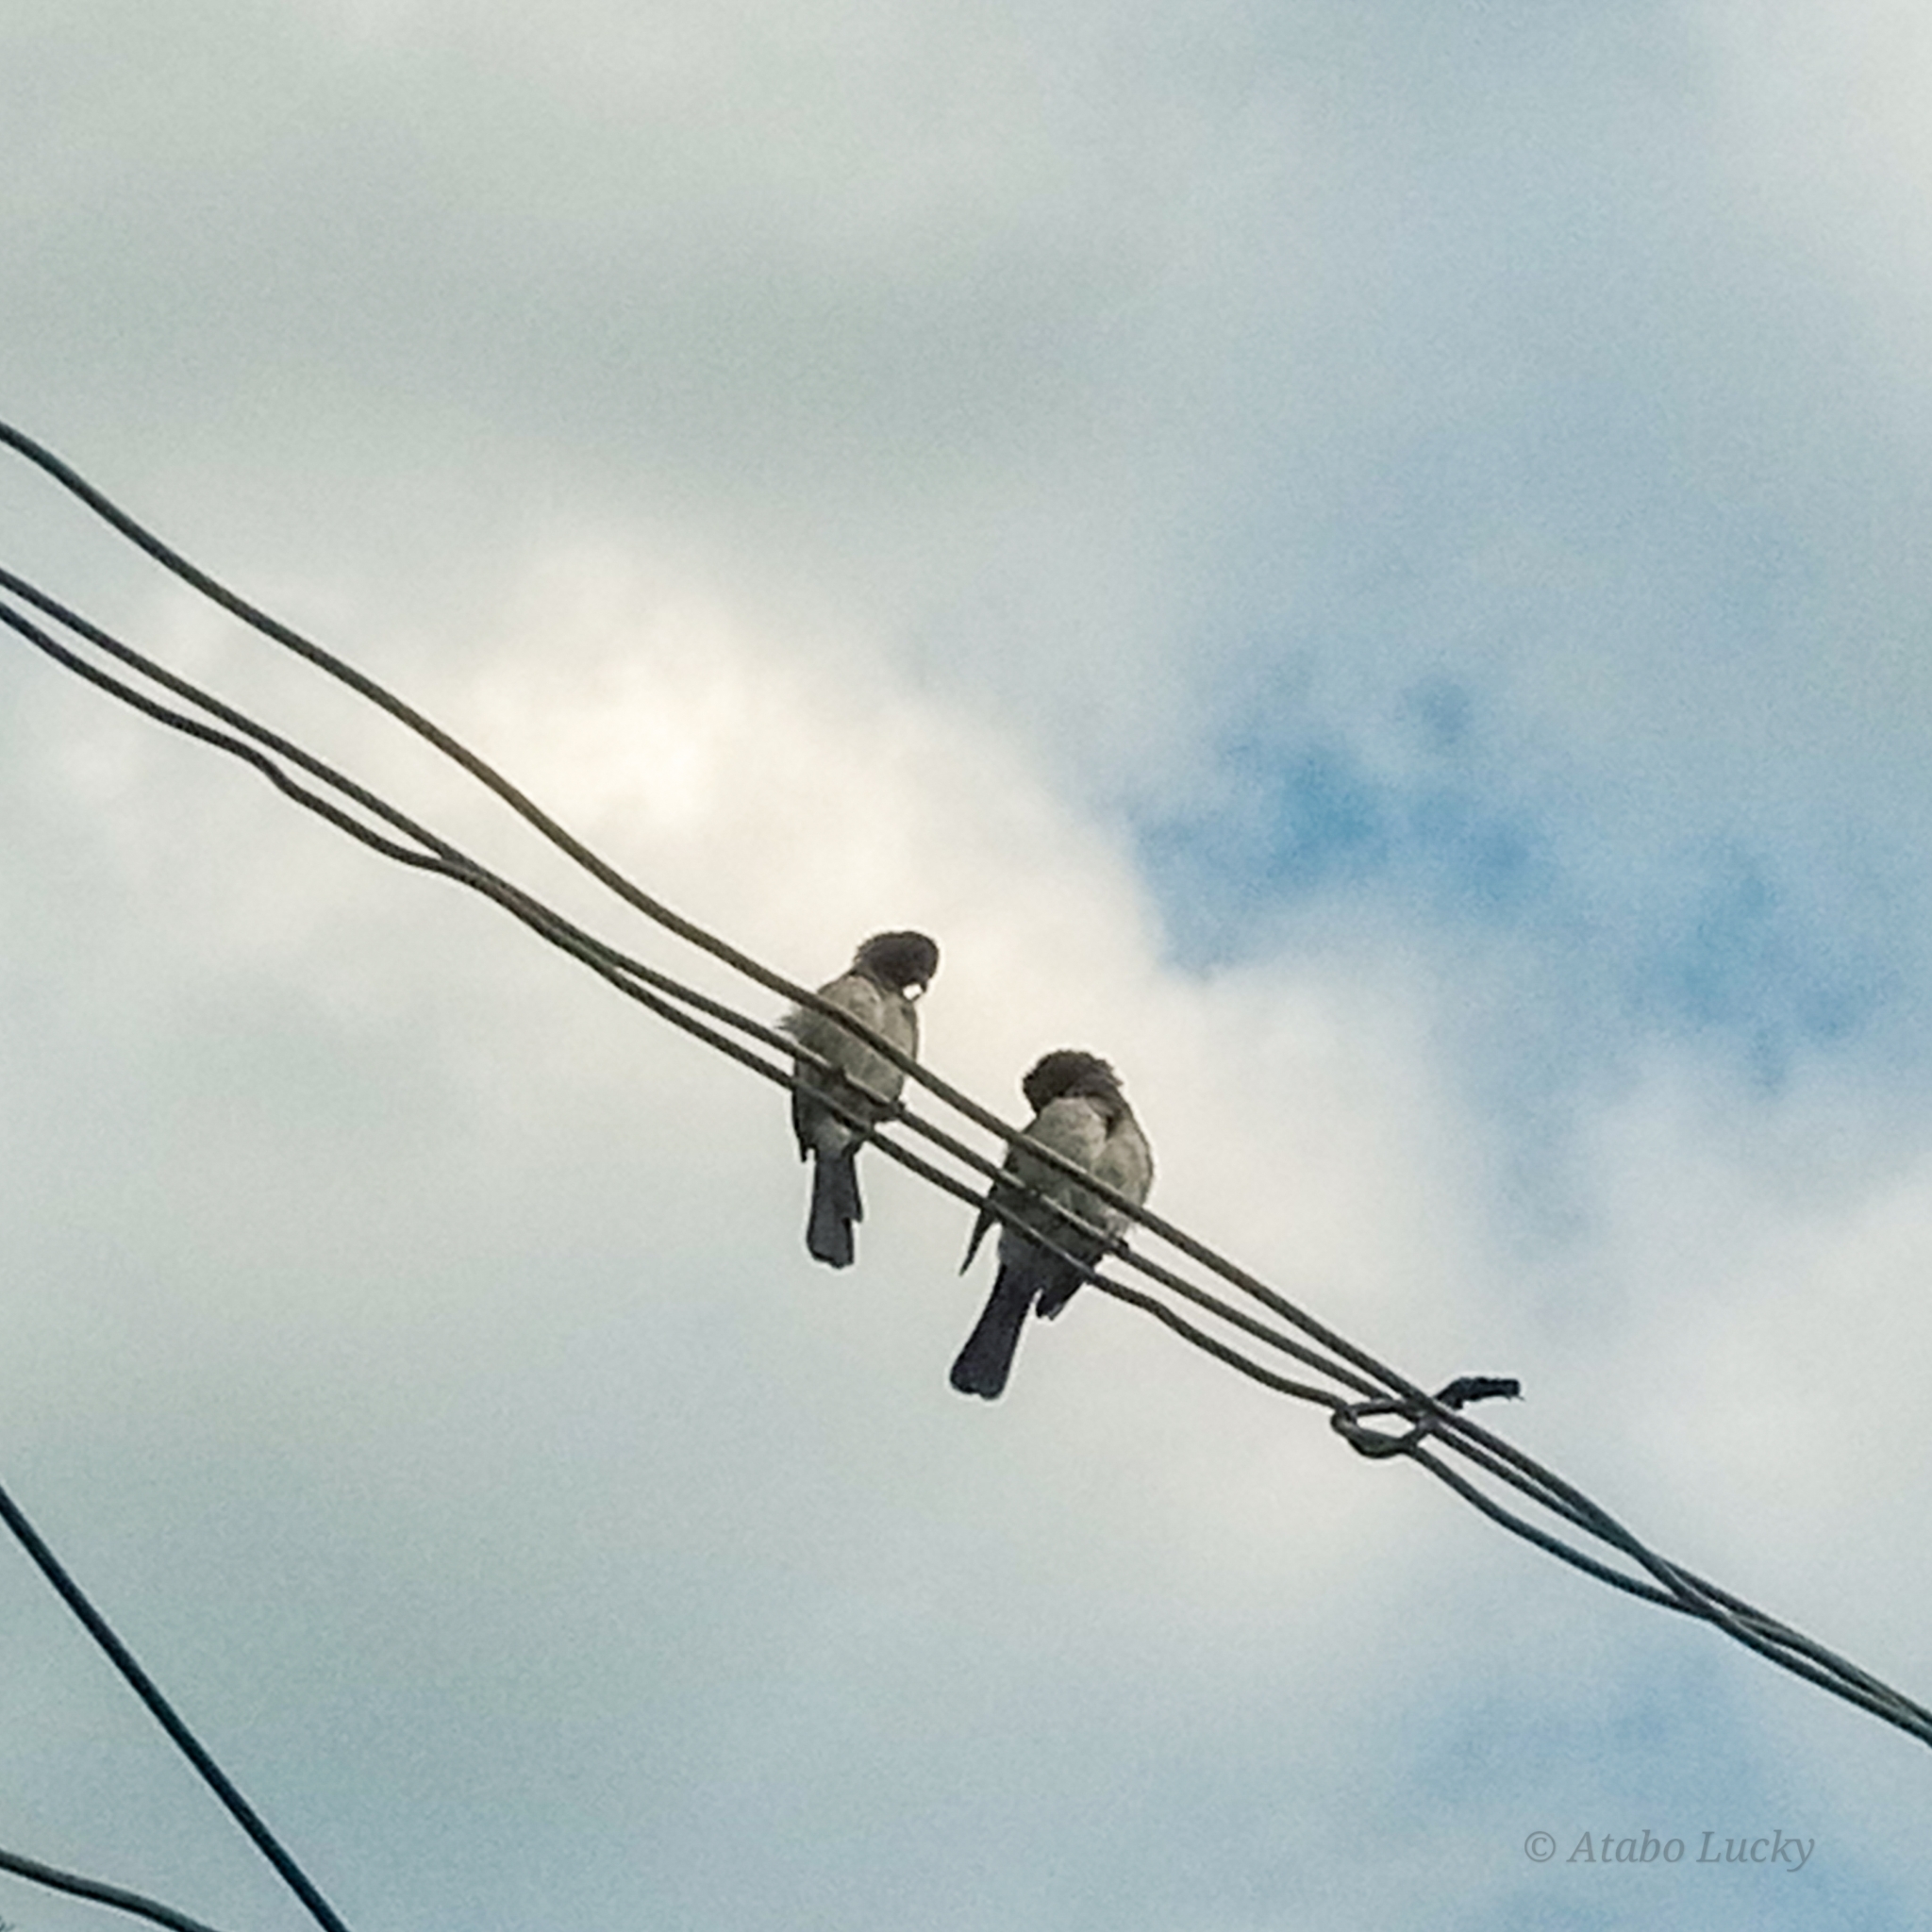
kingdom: Animalia
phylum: Chordata
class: Aves
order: Passeriformes
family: Pycnonotidae
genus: Pycnonotus
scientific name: Pycnonotus barbatus
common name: Common bulbul
